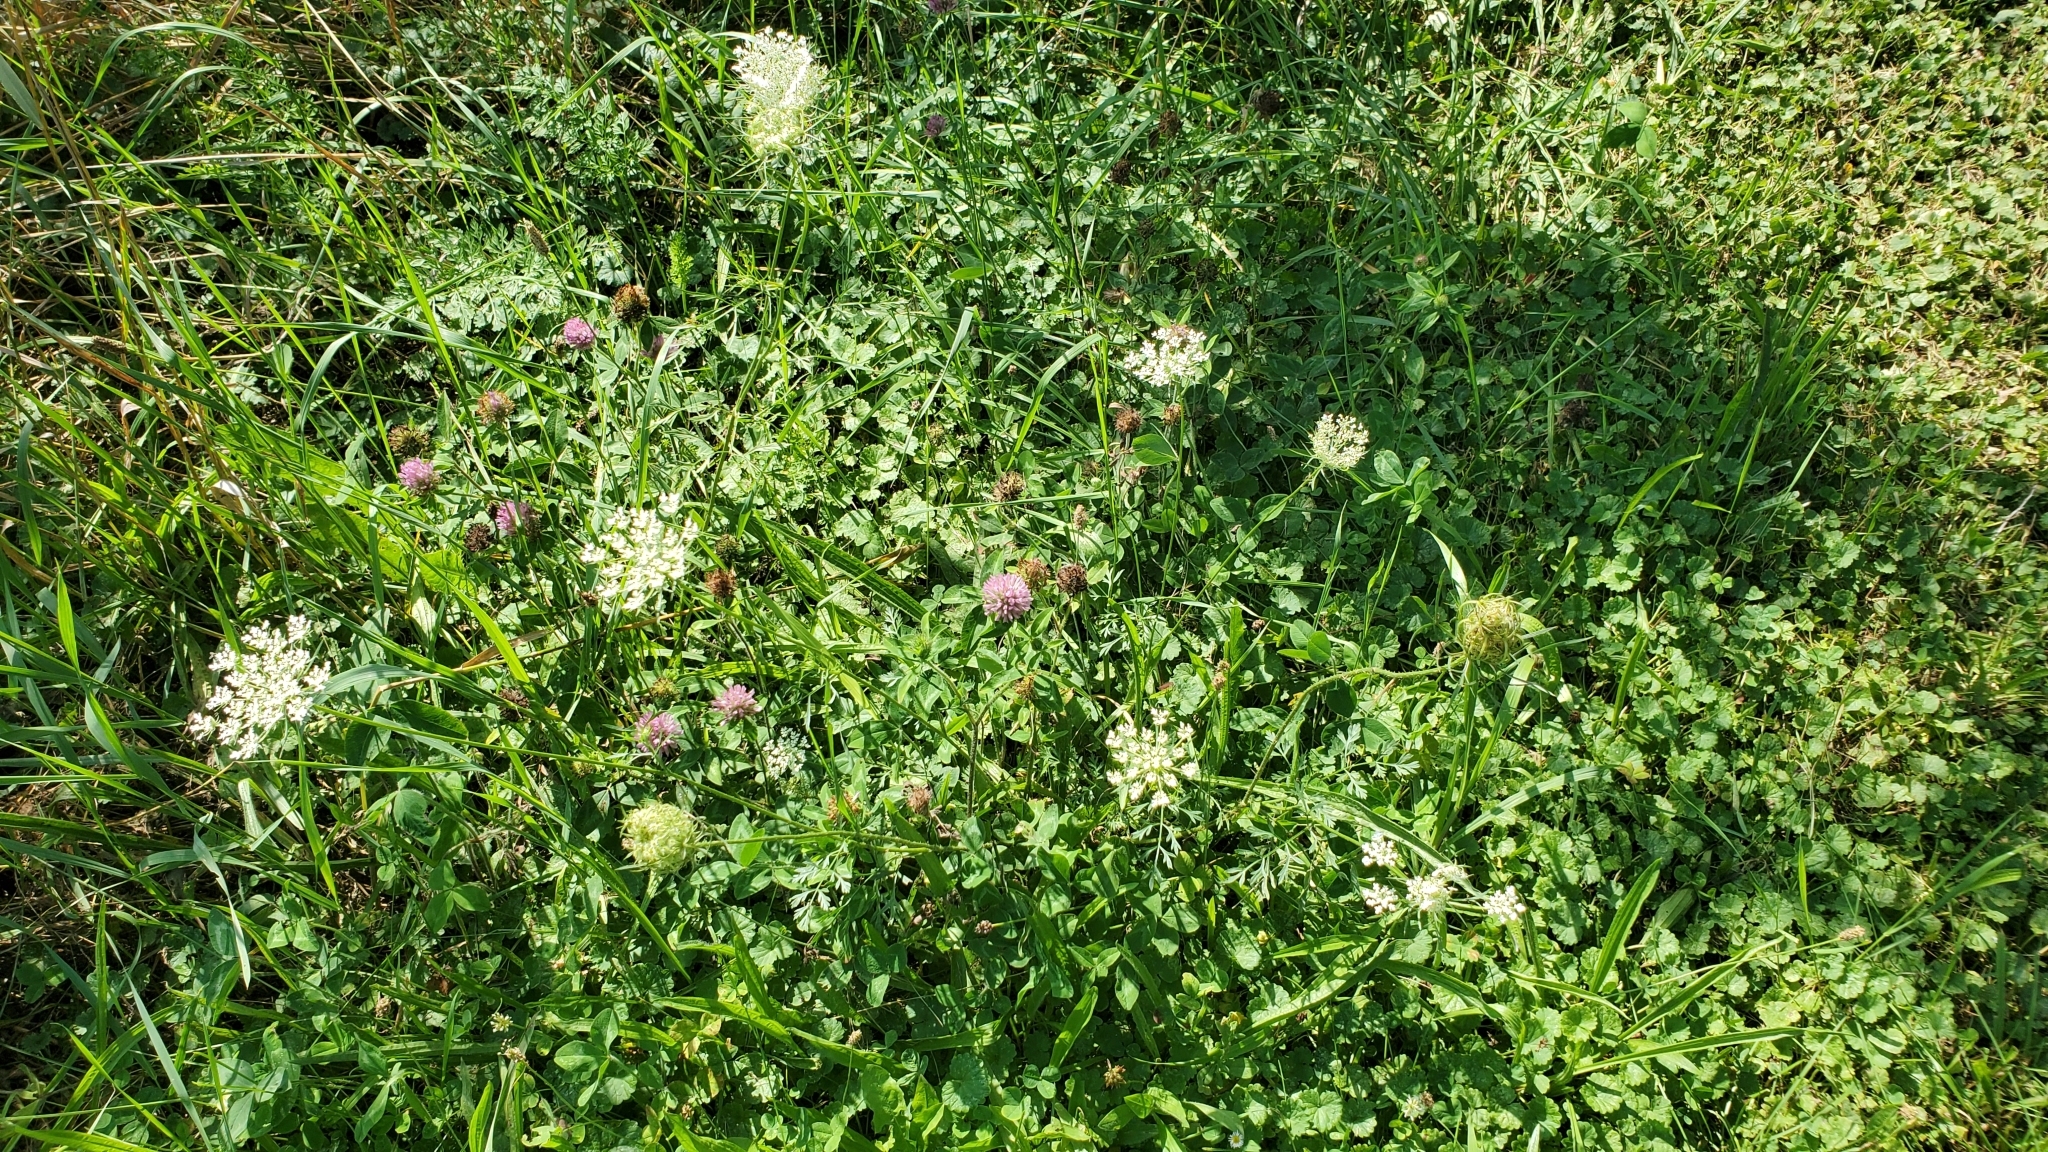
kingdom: Plantae
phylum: Tracheophyta
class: Magnoliopsida
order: Apiales
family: Apiaceae
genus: Daucus
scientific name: Daucus carota
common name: Wild carrot
